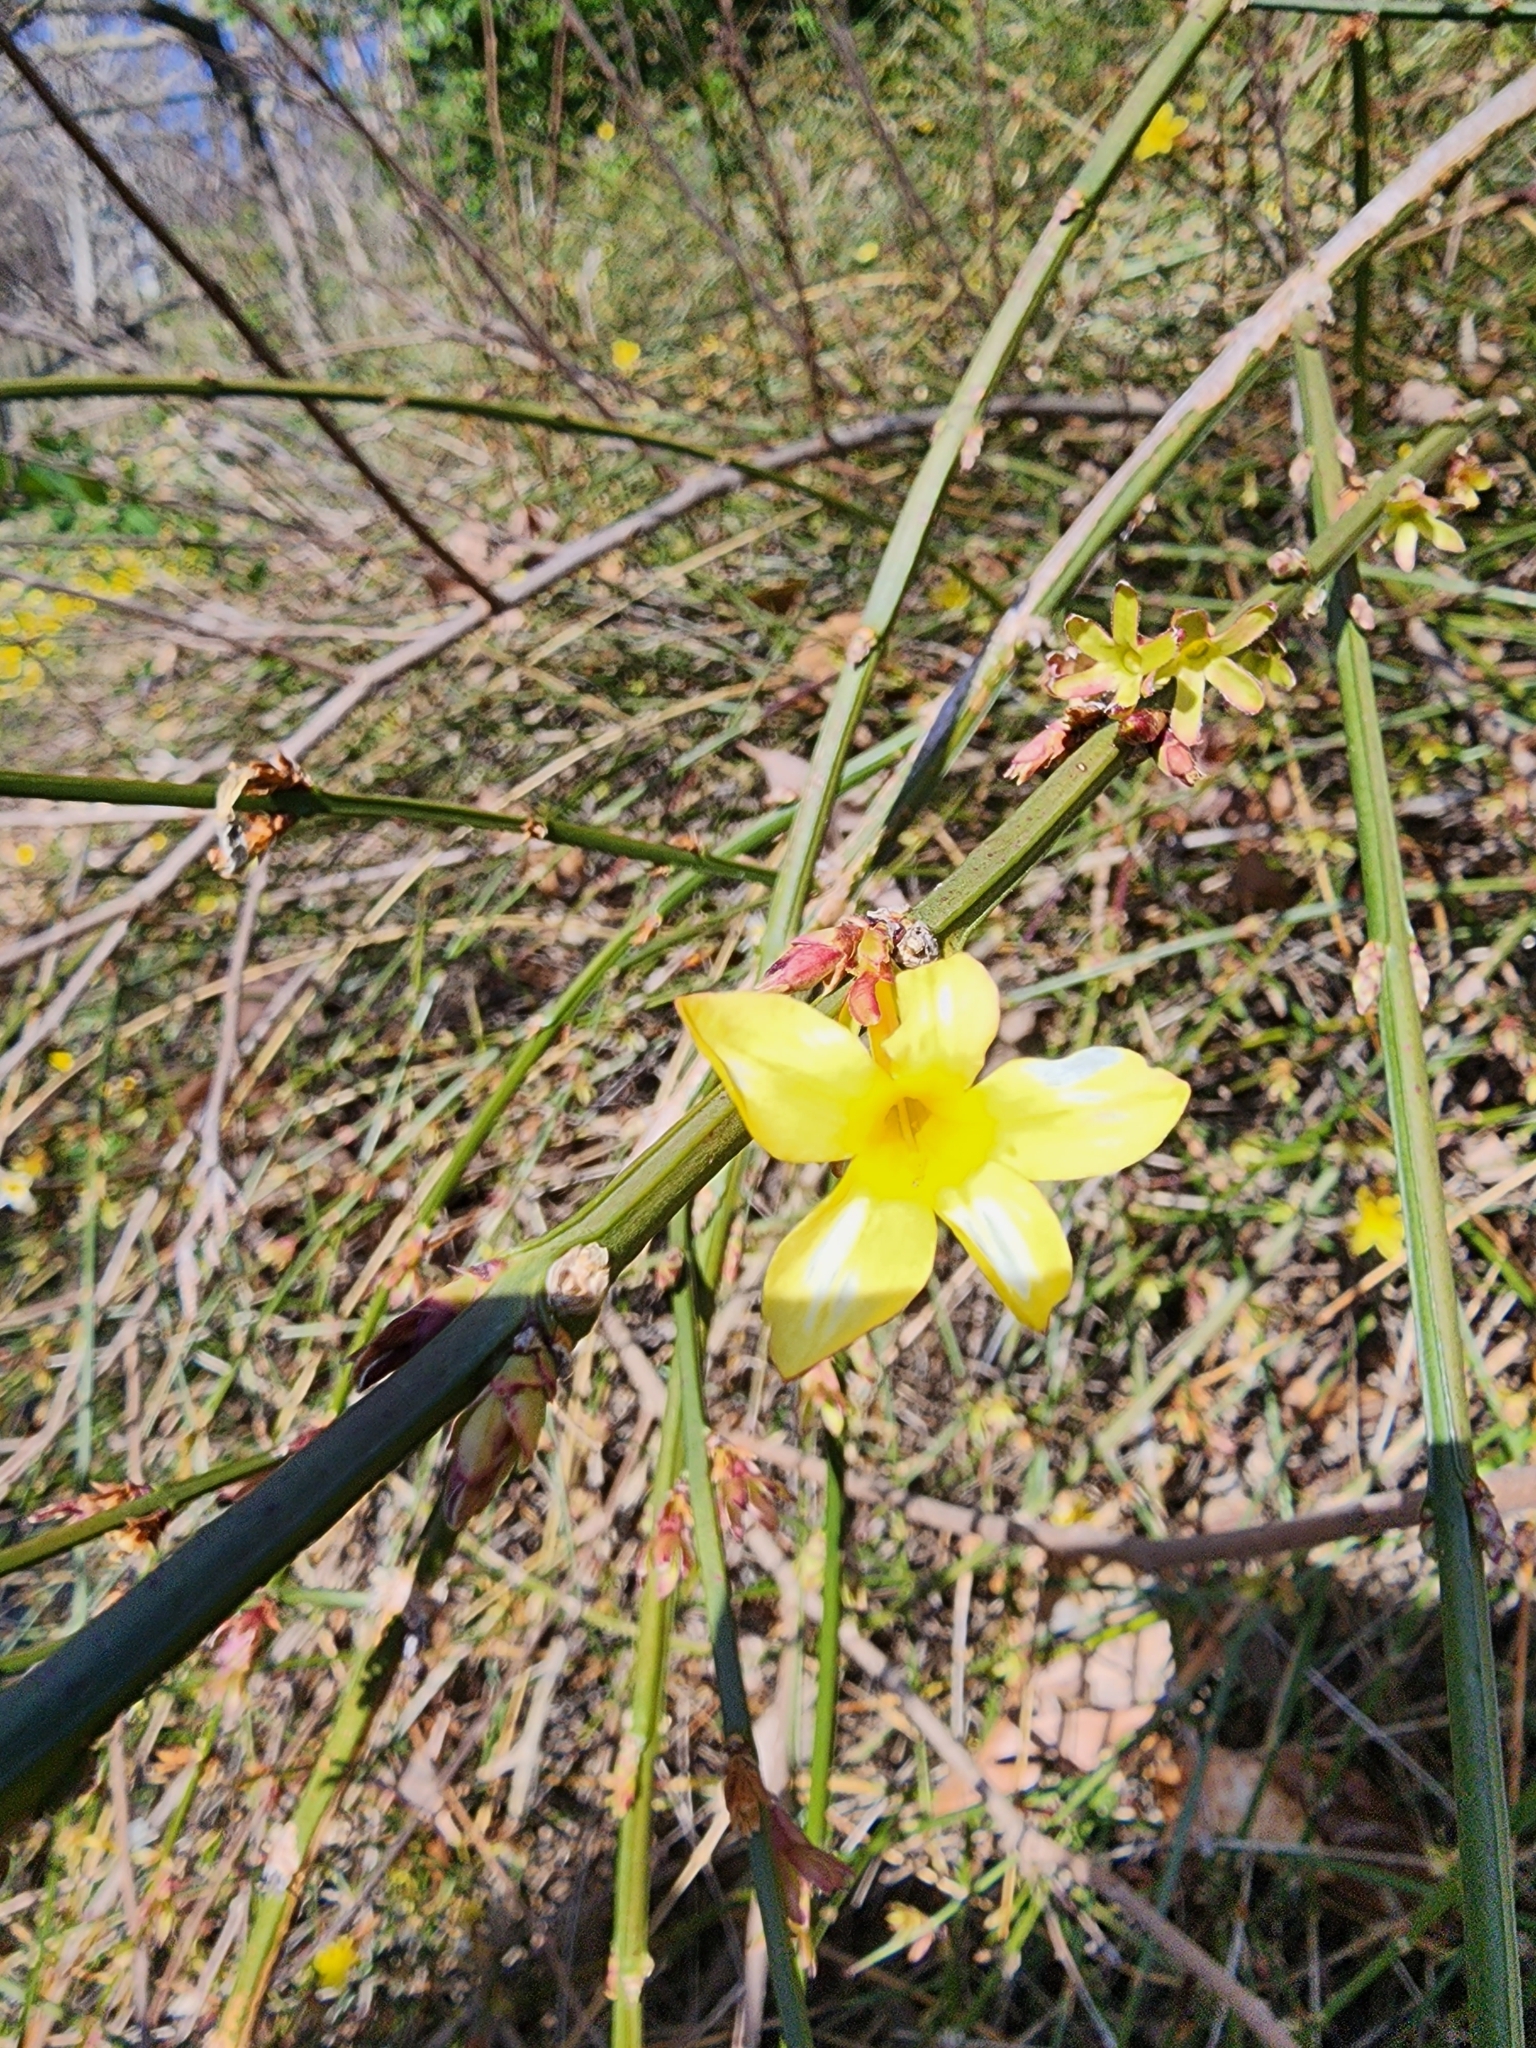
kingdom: Plantae
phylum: Tracheophyta
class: Magnoliopsida
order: Lamiales
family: Oleaceae
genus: Jasminum
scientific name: Jasminum nudiflorum
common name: Winter jasmine
